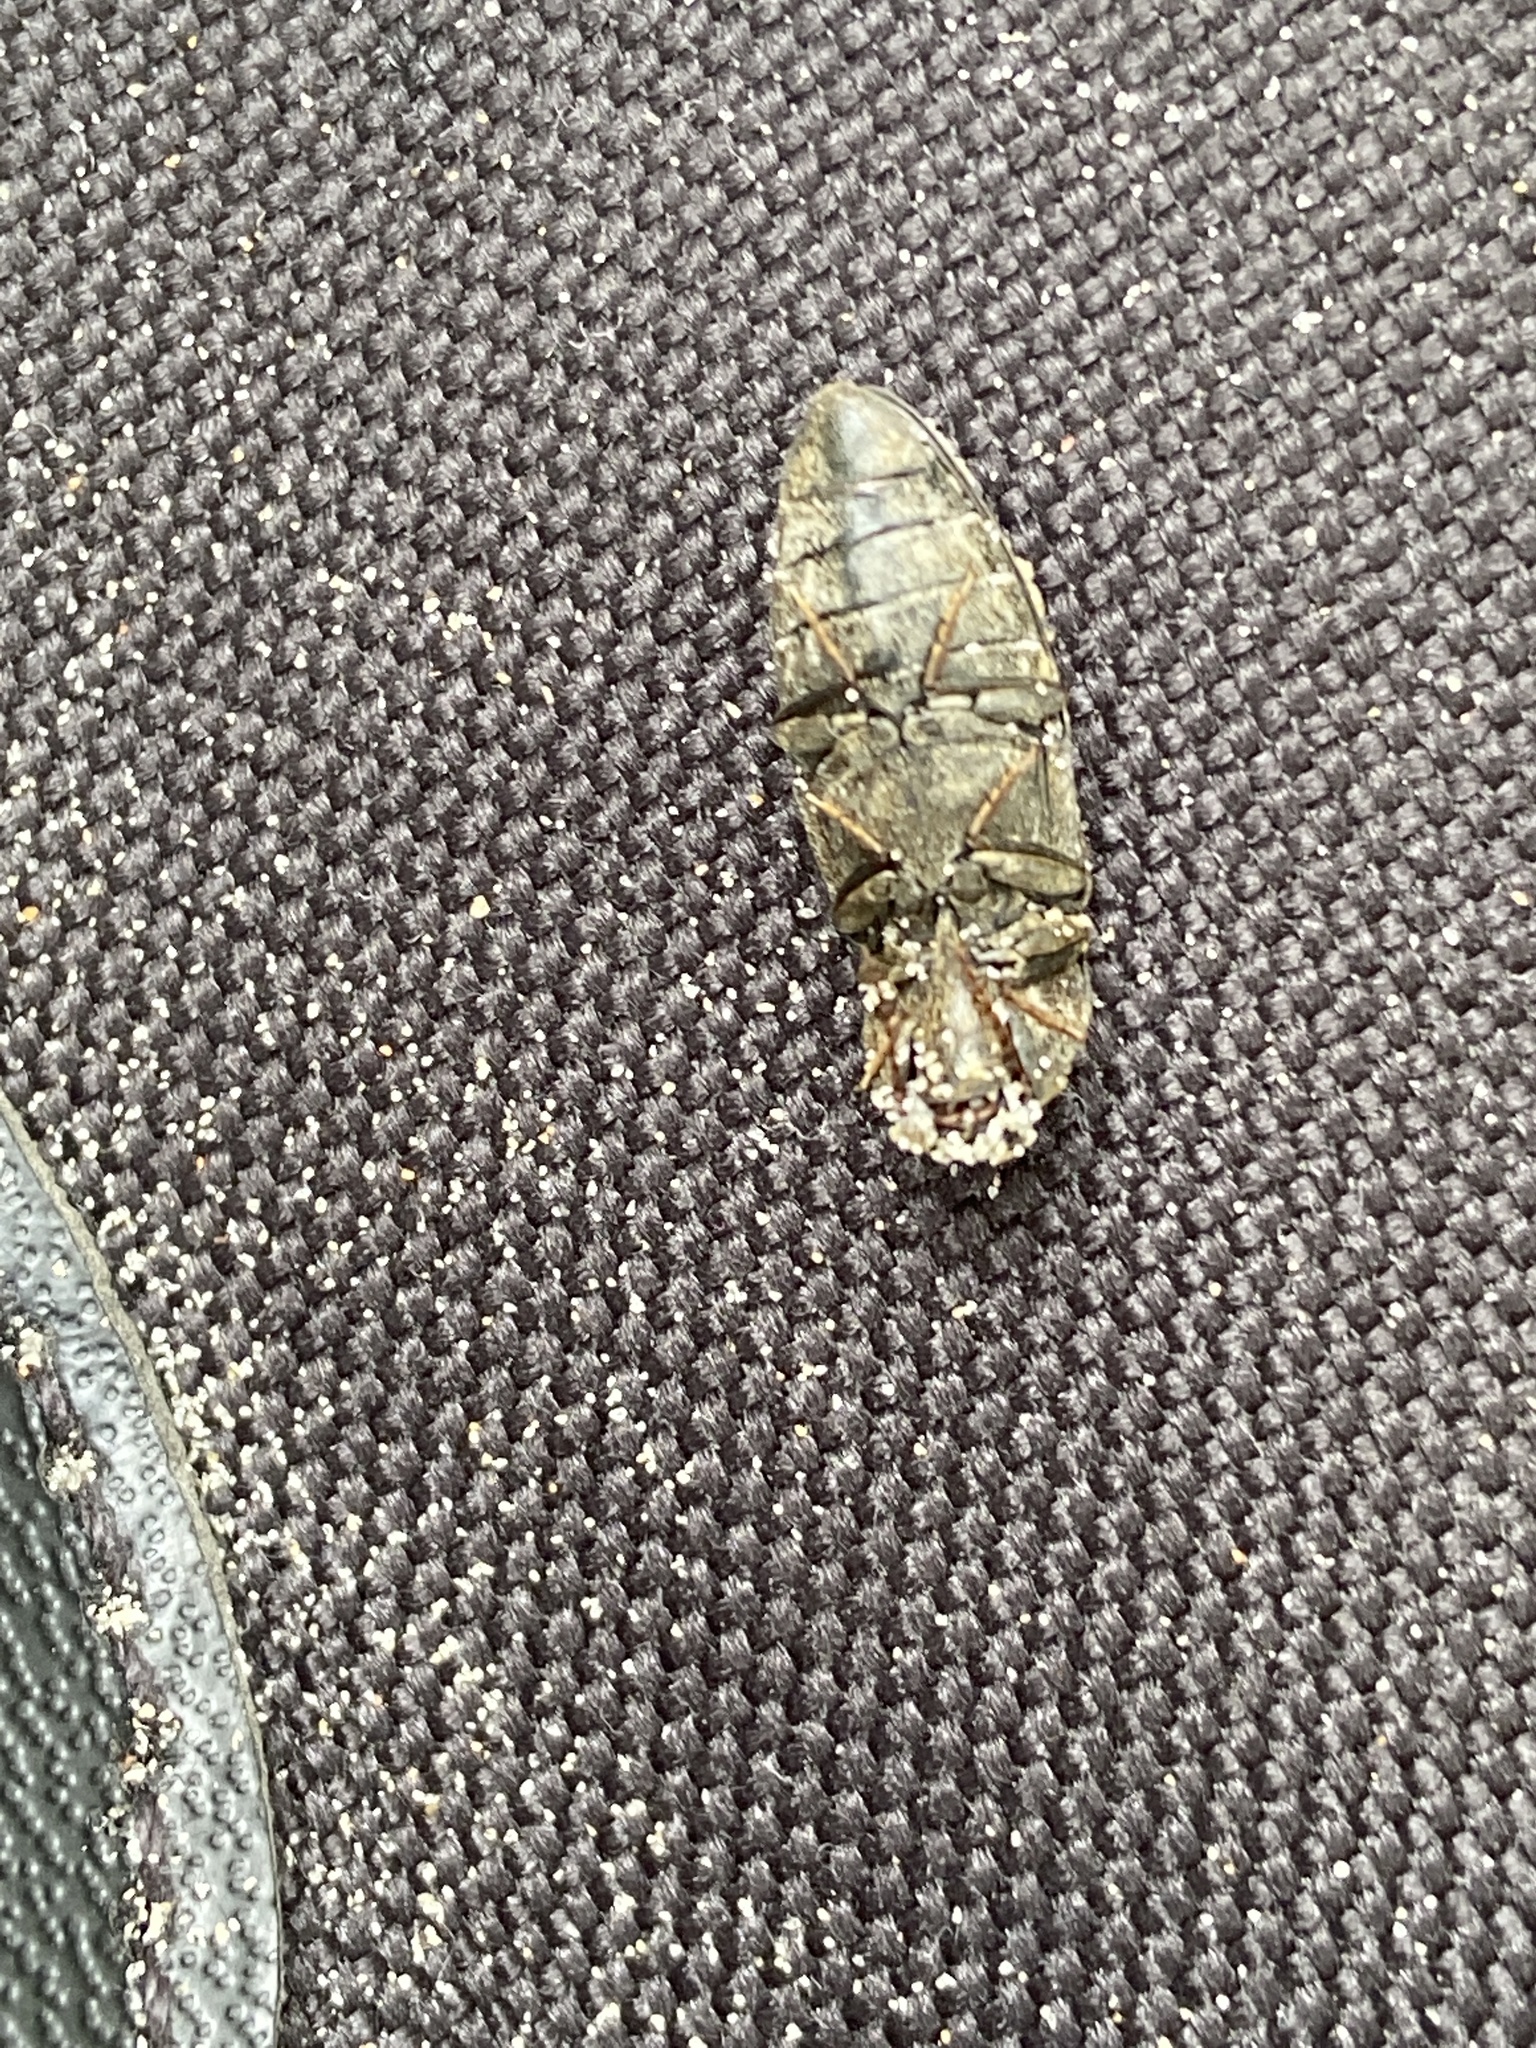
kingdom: Animalia
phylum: Arthropoda
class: Insecta
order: Coleoptera
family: Elateridae
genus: Agrypnus
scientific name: Agrypnus murinus
